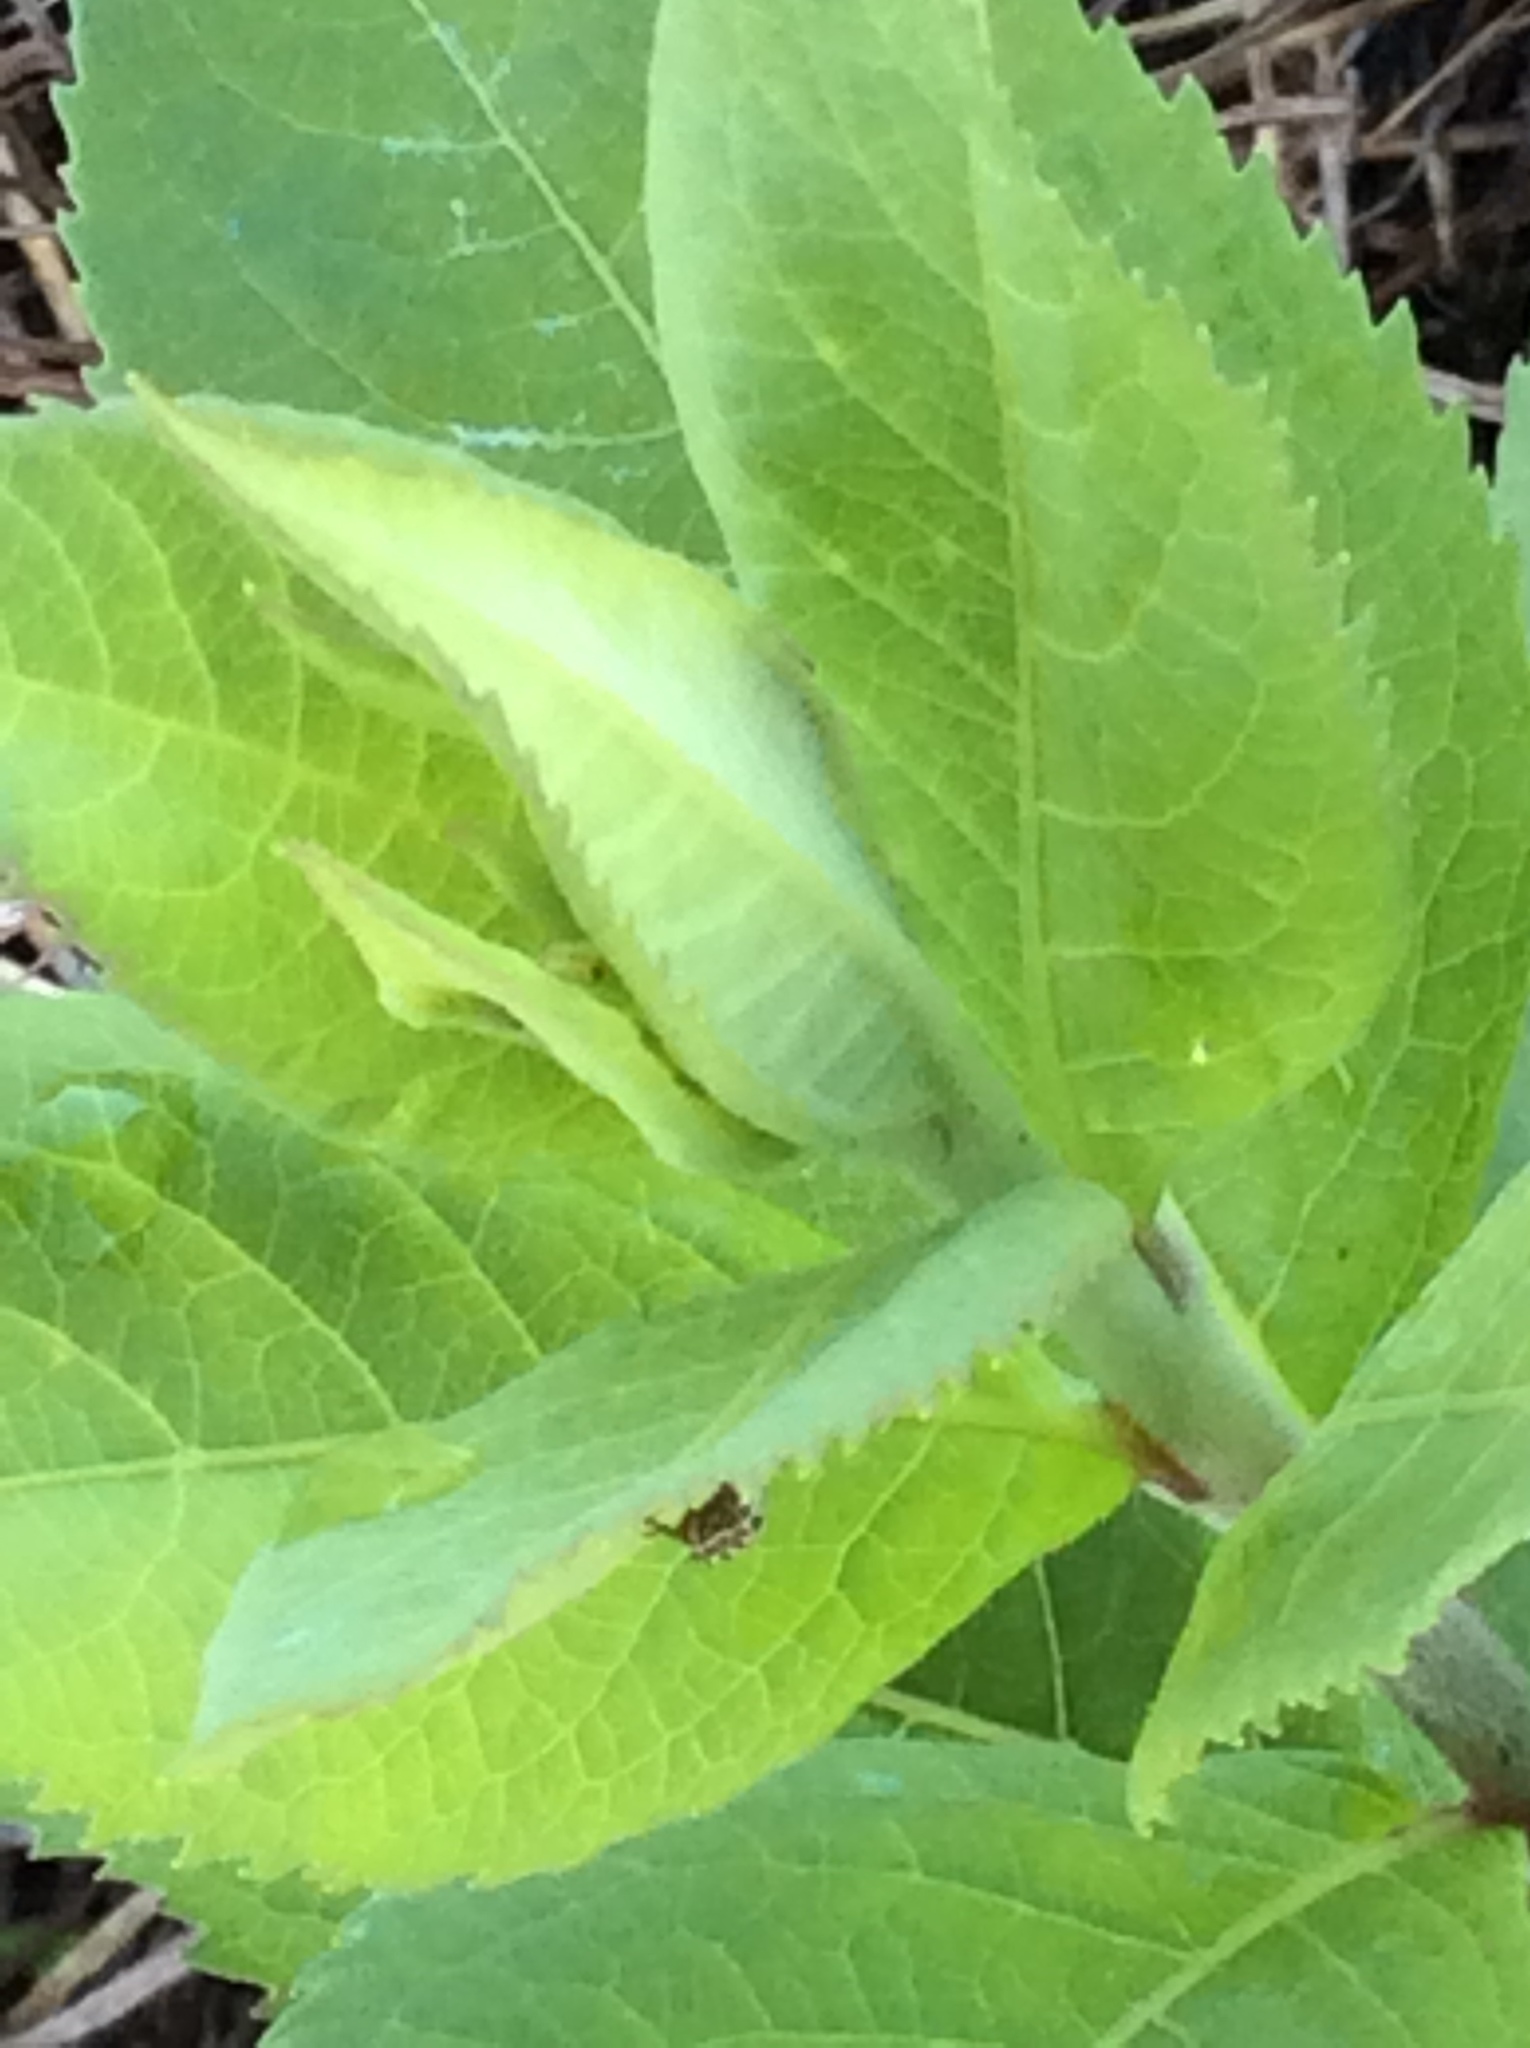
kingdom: Animalia
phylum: Arthropoda
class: Insecta
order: Hemiptera
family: Cicadellidae
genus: Cuerna
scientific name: Cuerna costalis
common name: Lateral-lined sharpshooter
